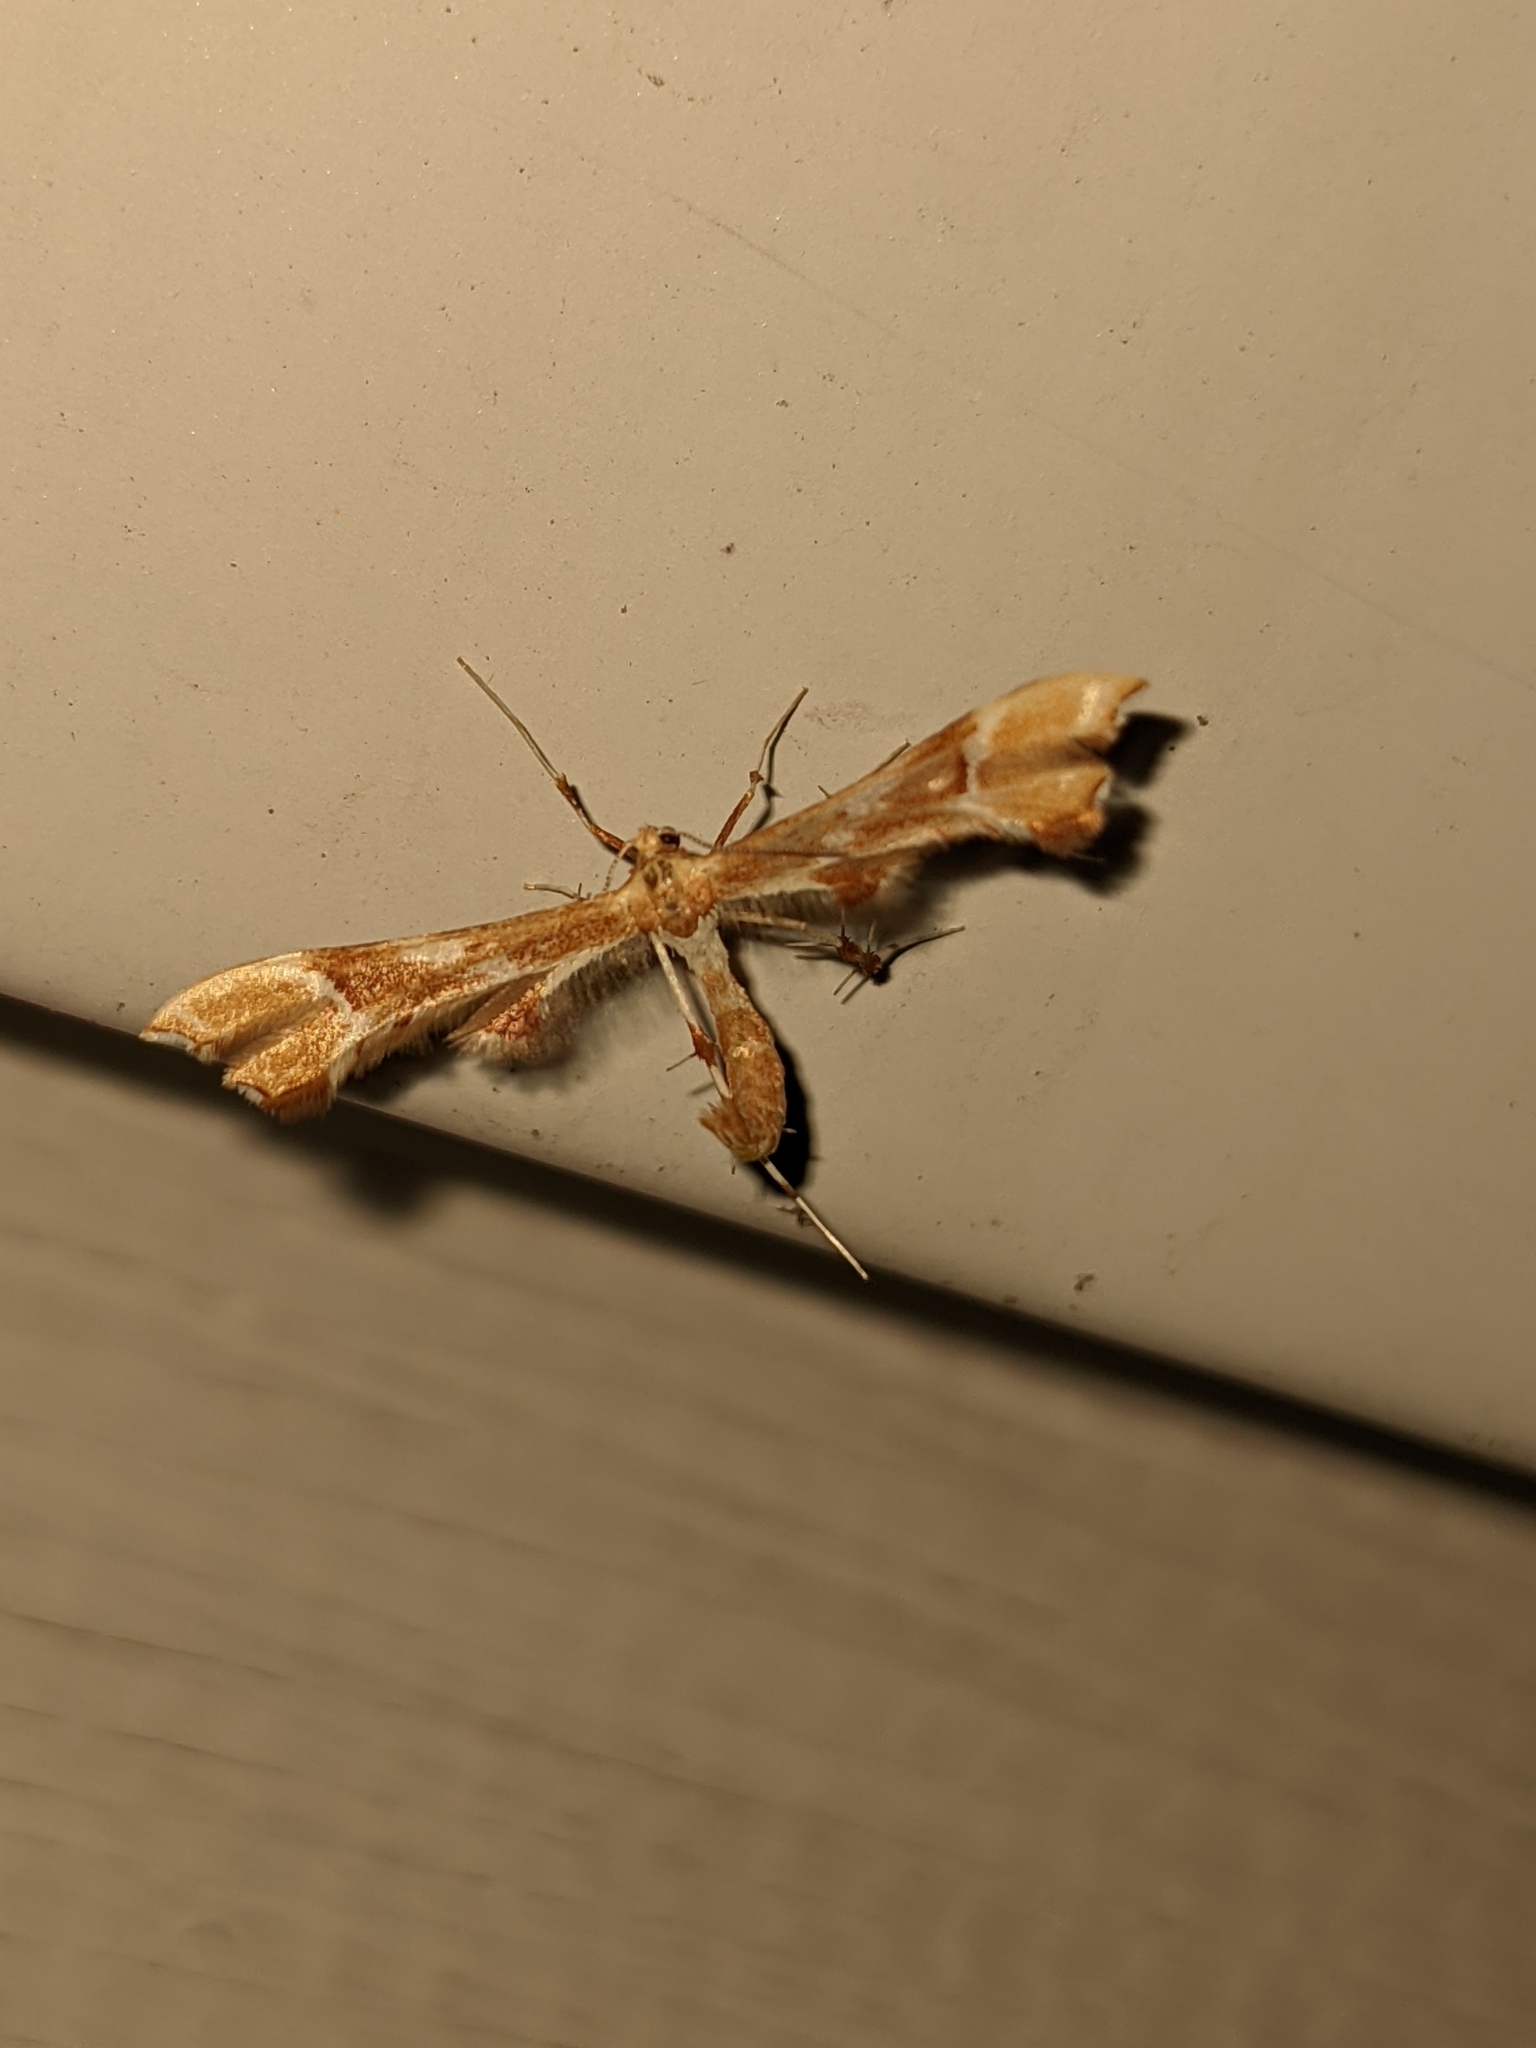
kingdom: Animalia
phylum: Arthropoda
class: Insecta
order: Lepidoptera
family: Pterophoridae
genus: Cnaemidophorus
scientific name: Cnaemidophorus rhododactyla
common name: Rose plume
